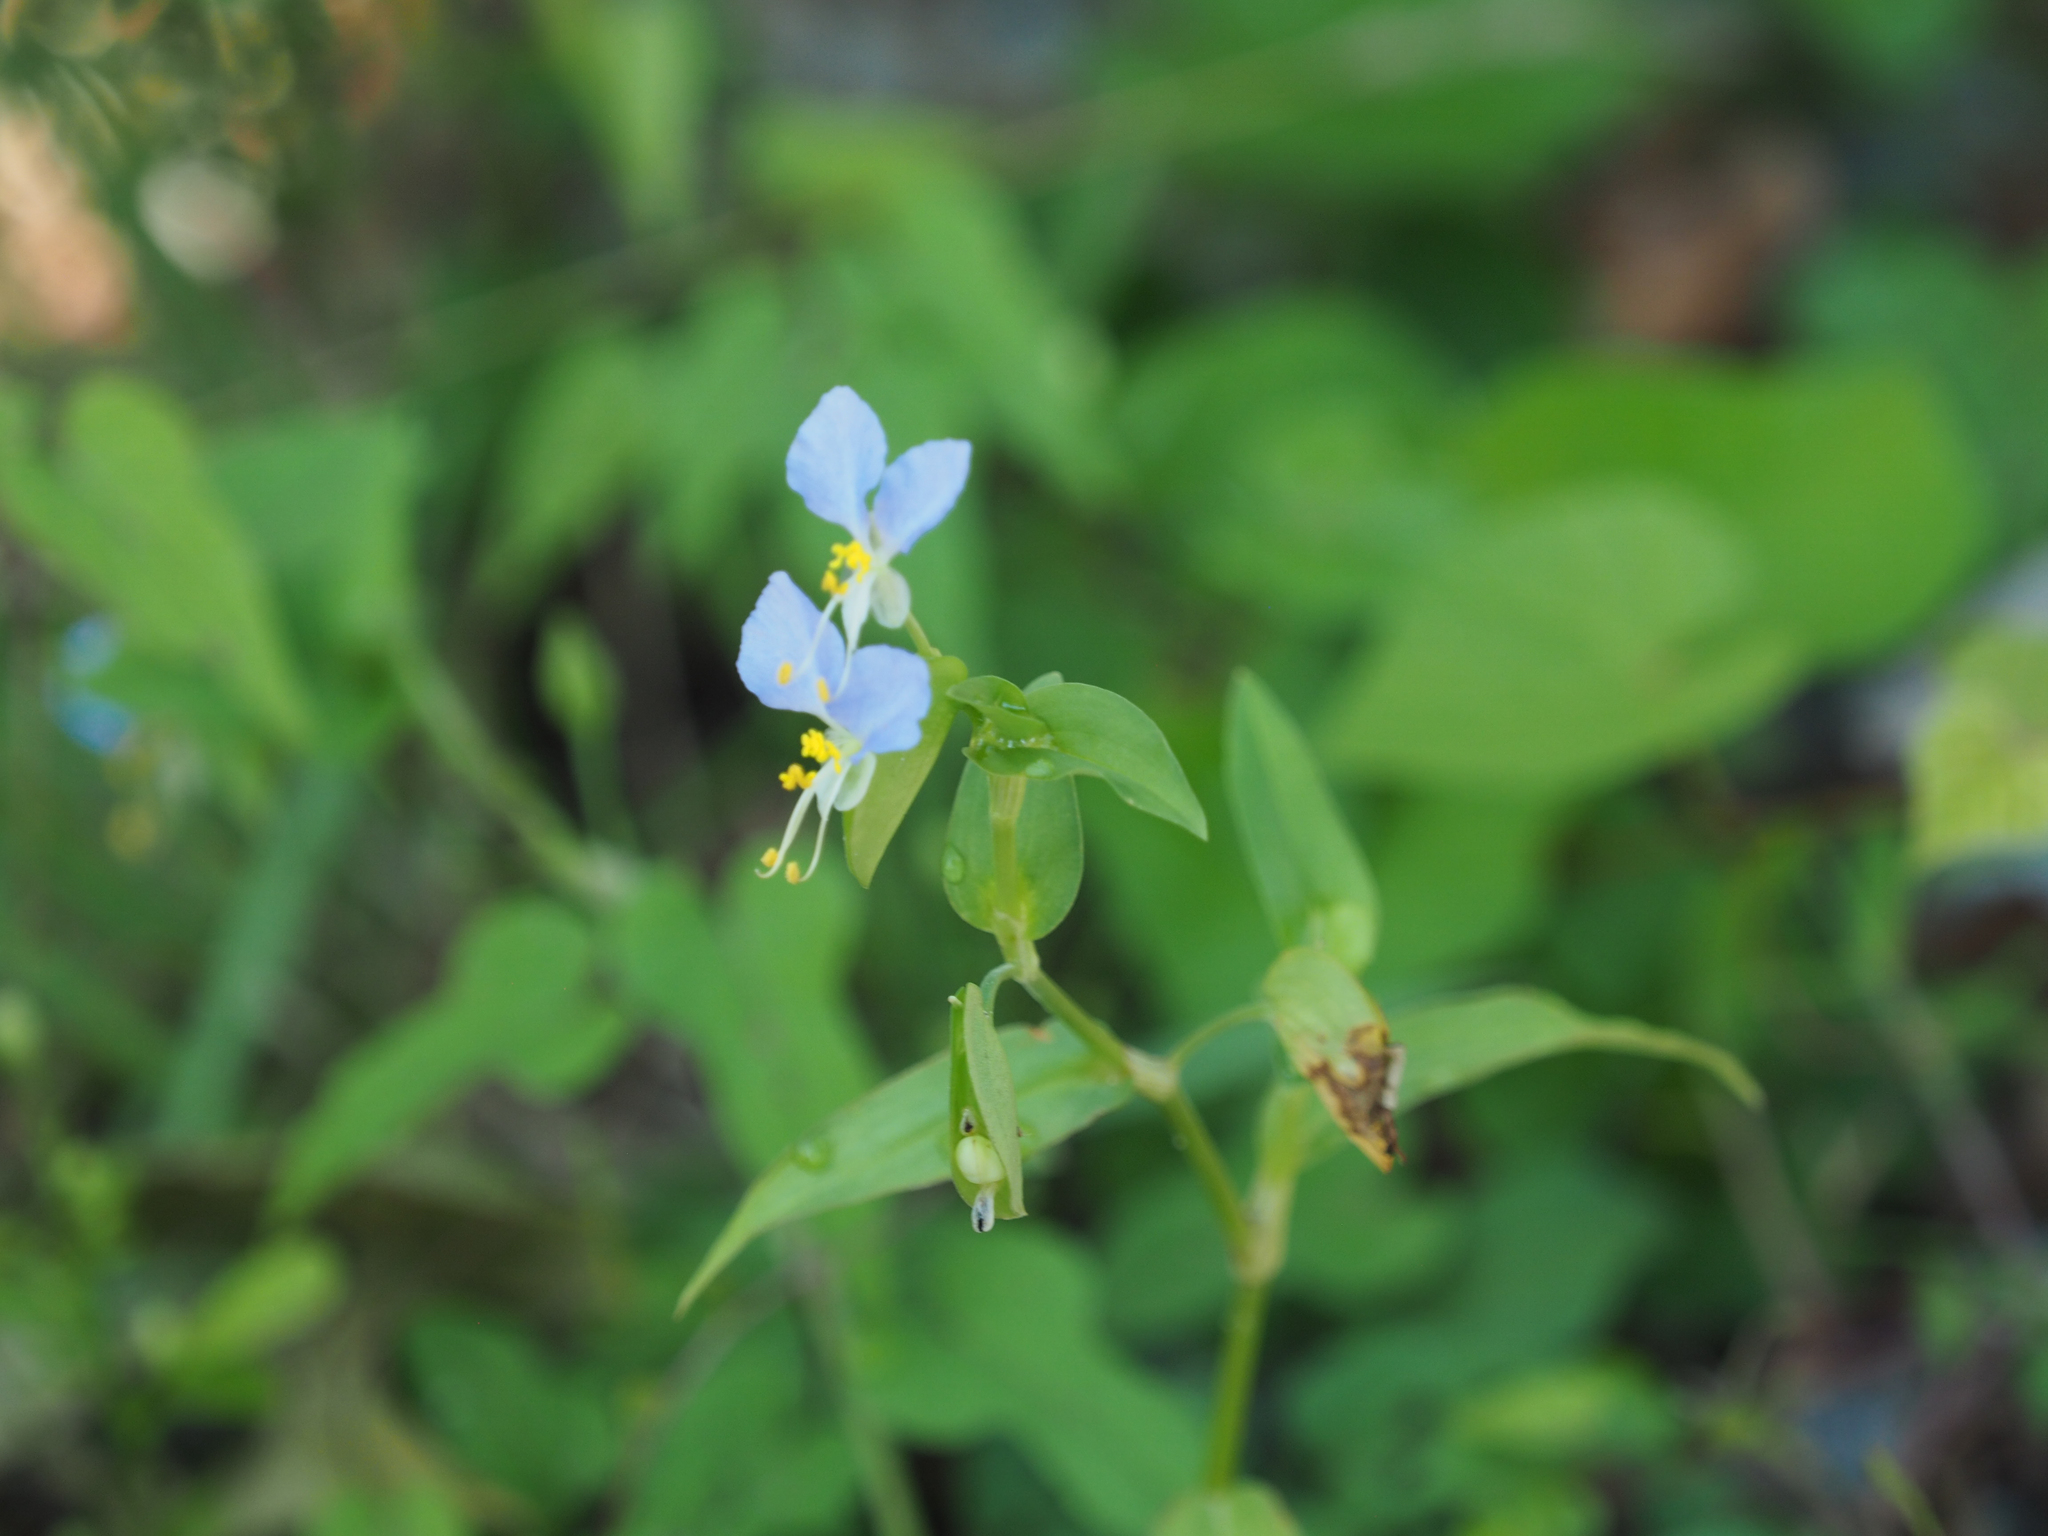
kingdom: Plantae
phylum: Tracheophyta
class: Liliopsida
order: Commelinales
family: Commelinaceae
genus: Commelina
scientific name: Commelina communis
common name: Asiatic dayflower
